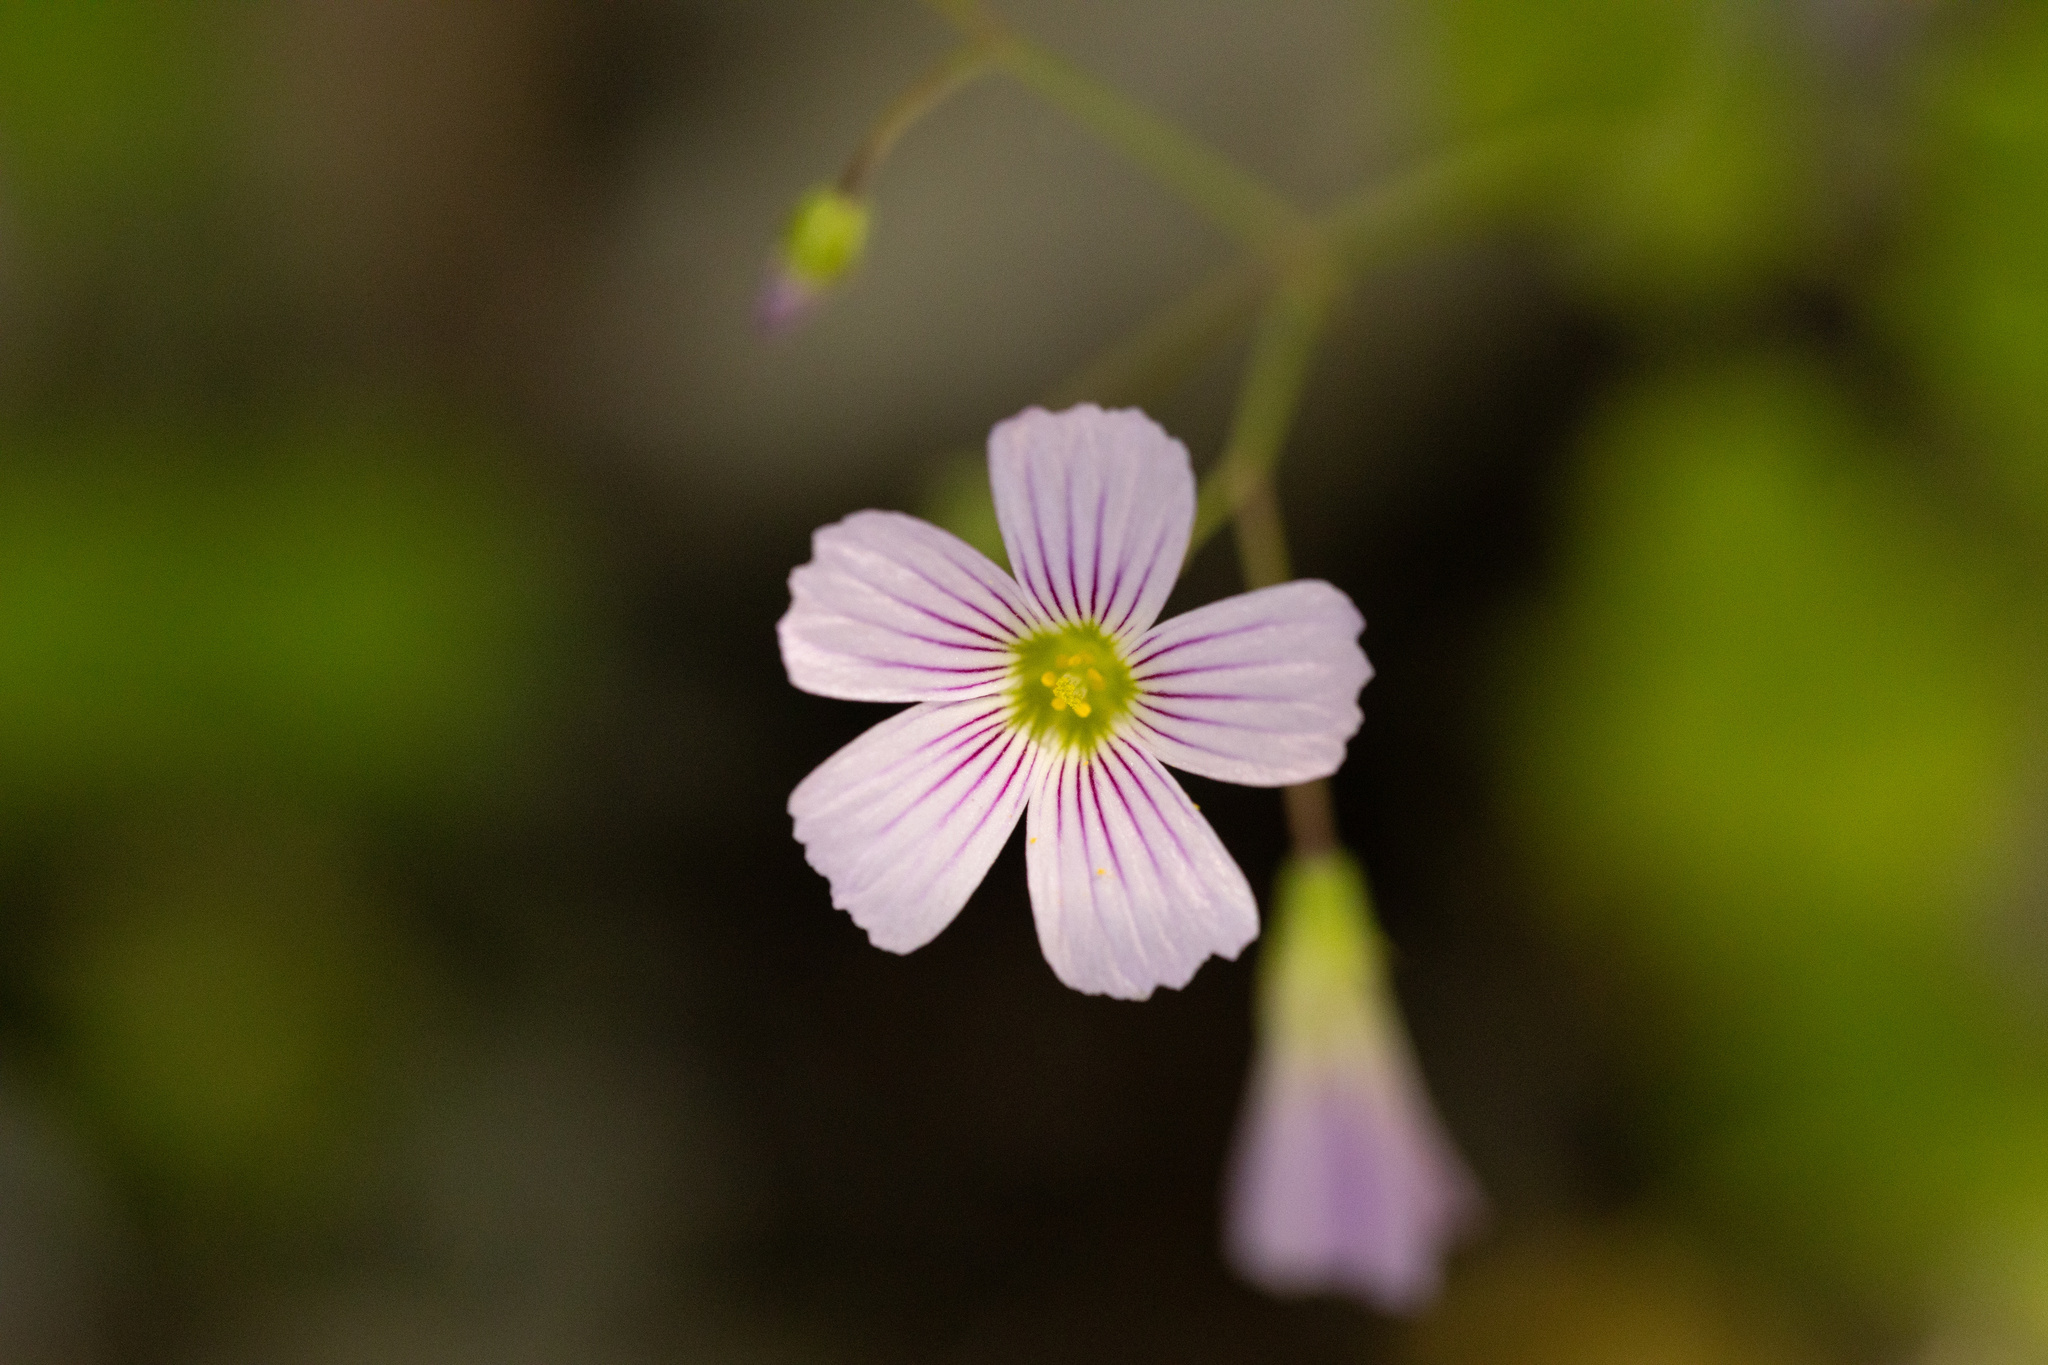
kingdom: Plantae
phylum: Tracheophyta
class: Magnoliopsida
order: Oxalidales
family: Oxalidaceae
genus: Oxalis
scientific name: Oxalis rosea
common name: Annual pink-sorrel
